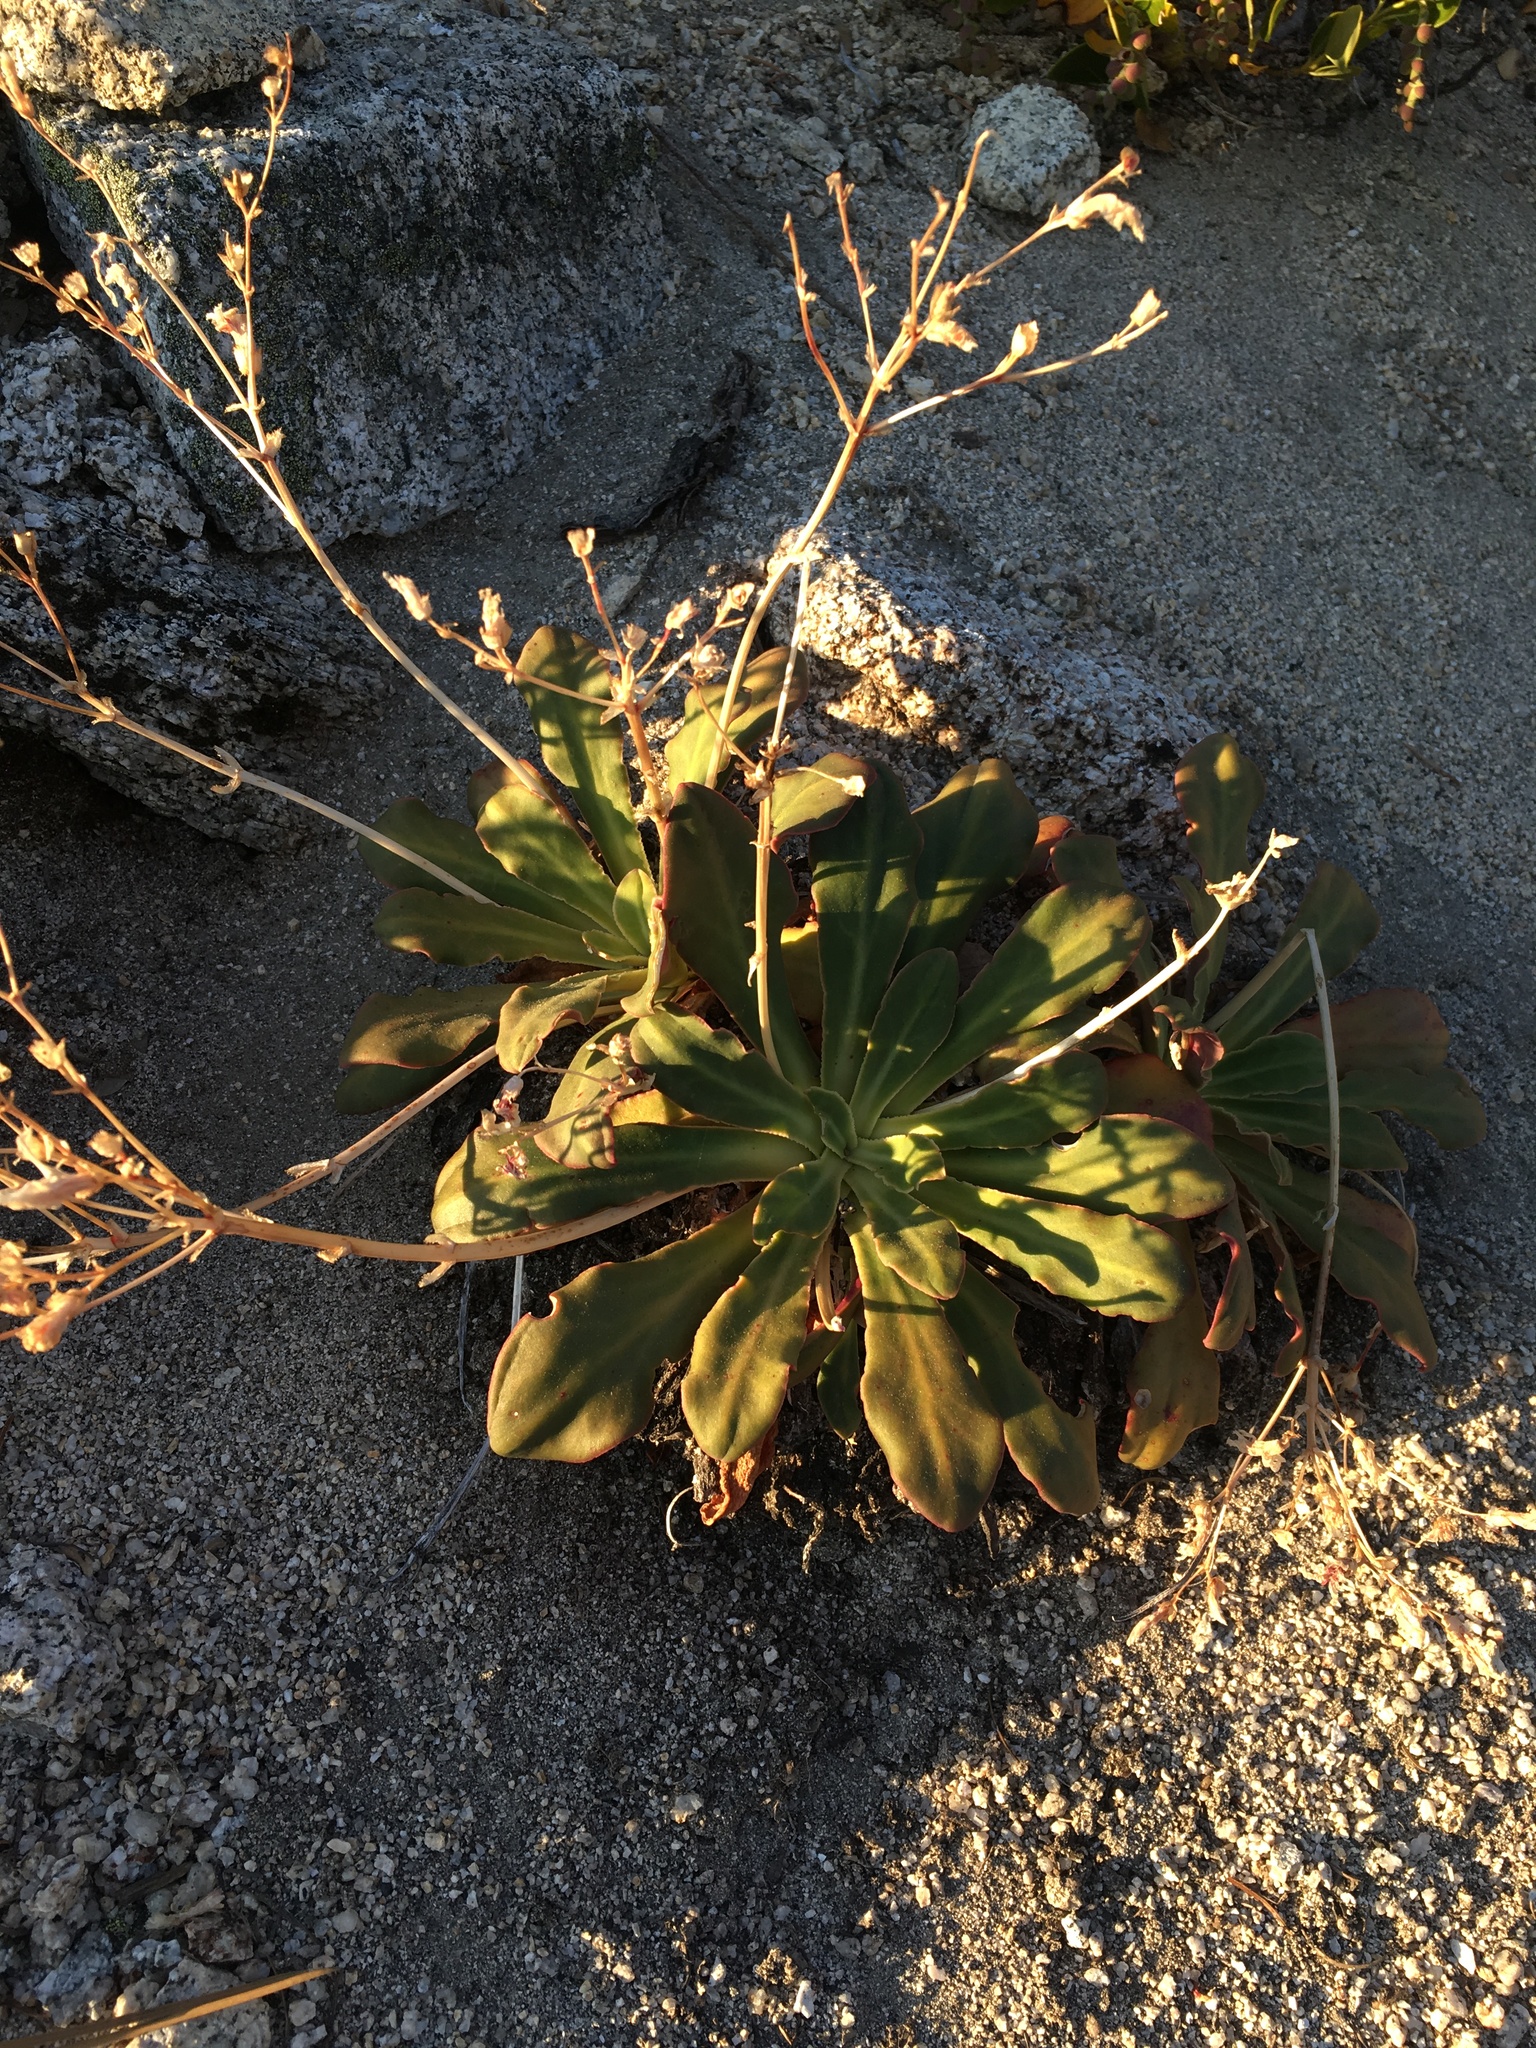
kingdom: Plantae
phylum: Tracheophyta
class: Magnoliopsida
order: Caryophyllales
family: Montiaceae
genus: Lewisia
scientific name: Lewisia cotyledon
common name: Siskiyou lewisia
